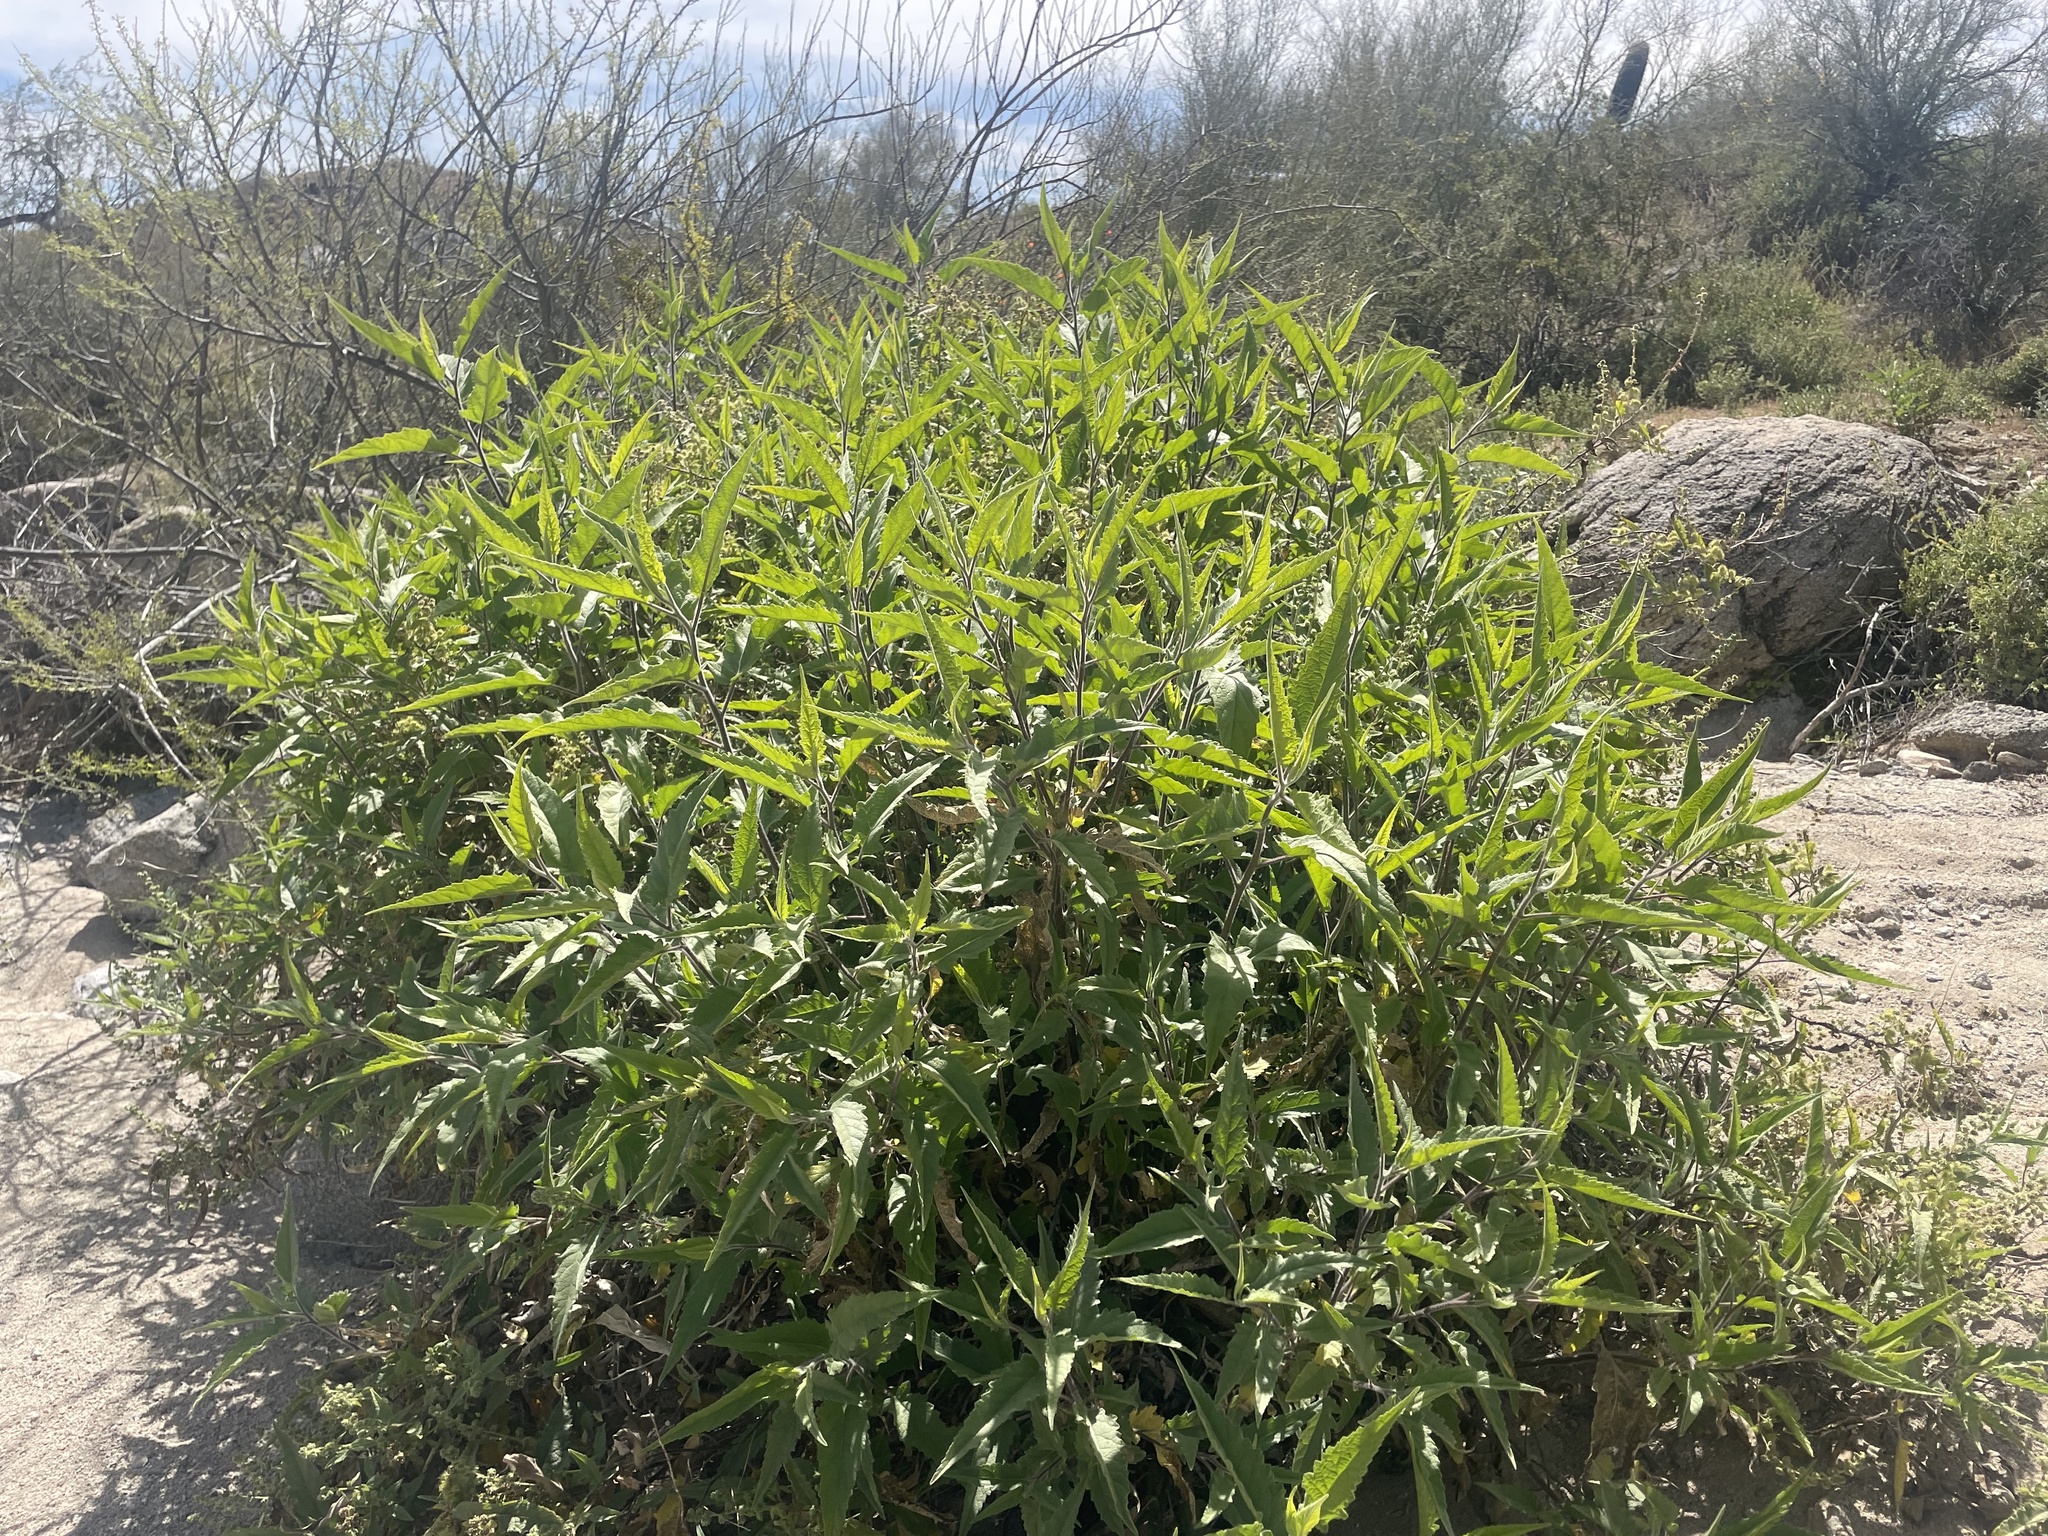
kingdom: Plantae
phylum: Tracheophyta
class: Magnoliopsida
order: Asterales
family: Asteraceae
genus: Ambrosia
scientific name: Ambrosia ambrosioides
